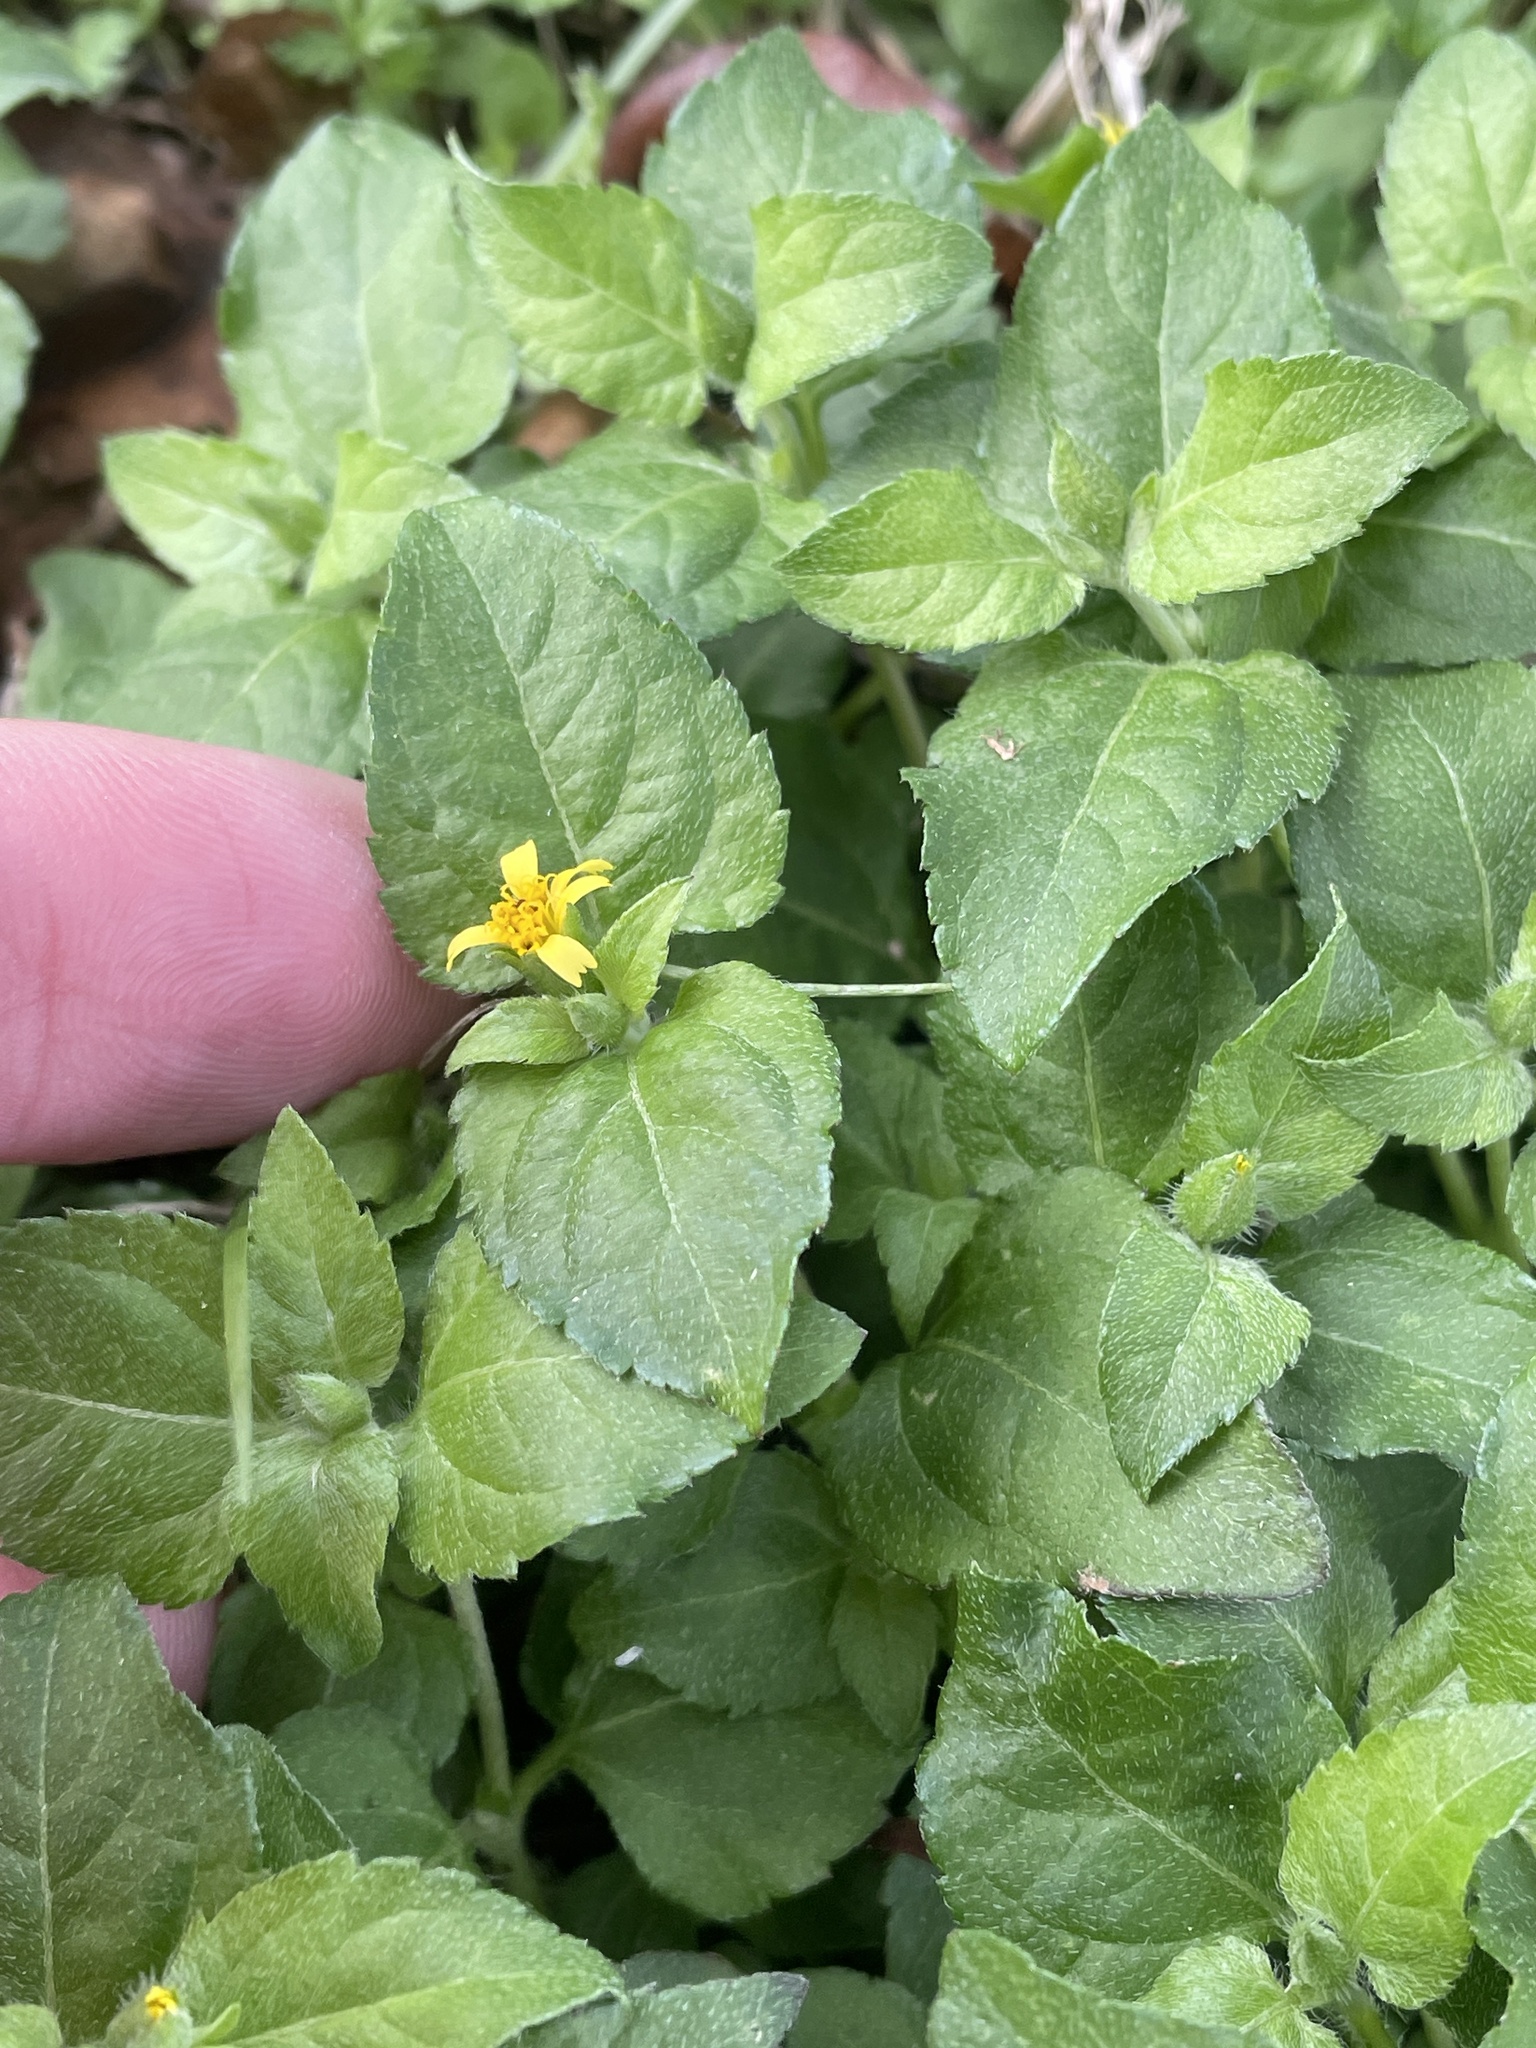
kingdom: Plantae
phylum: Tracheophyta
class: Magnoliopsida
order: Asterales
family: Asteraceae
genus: Calyptocarpus
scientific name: Calyptocarpus vialis
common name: Straggler daisy
